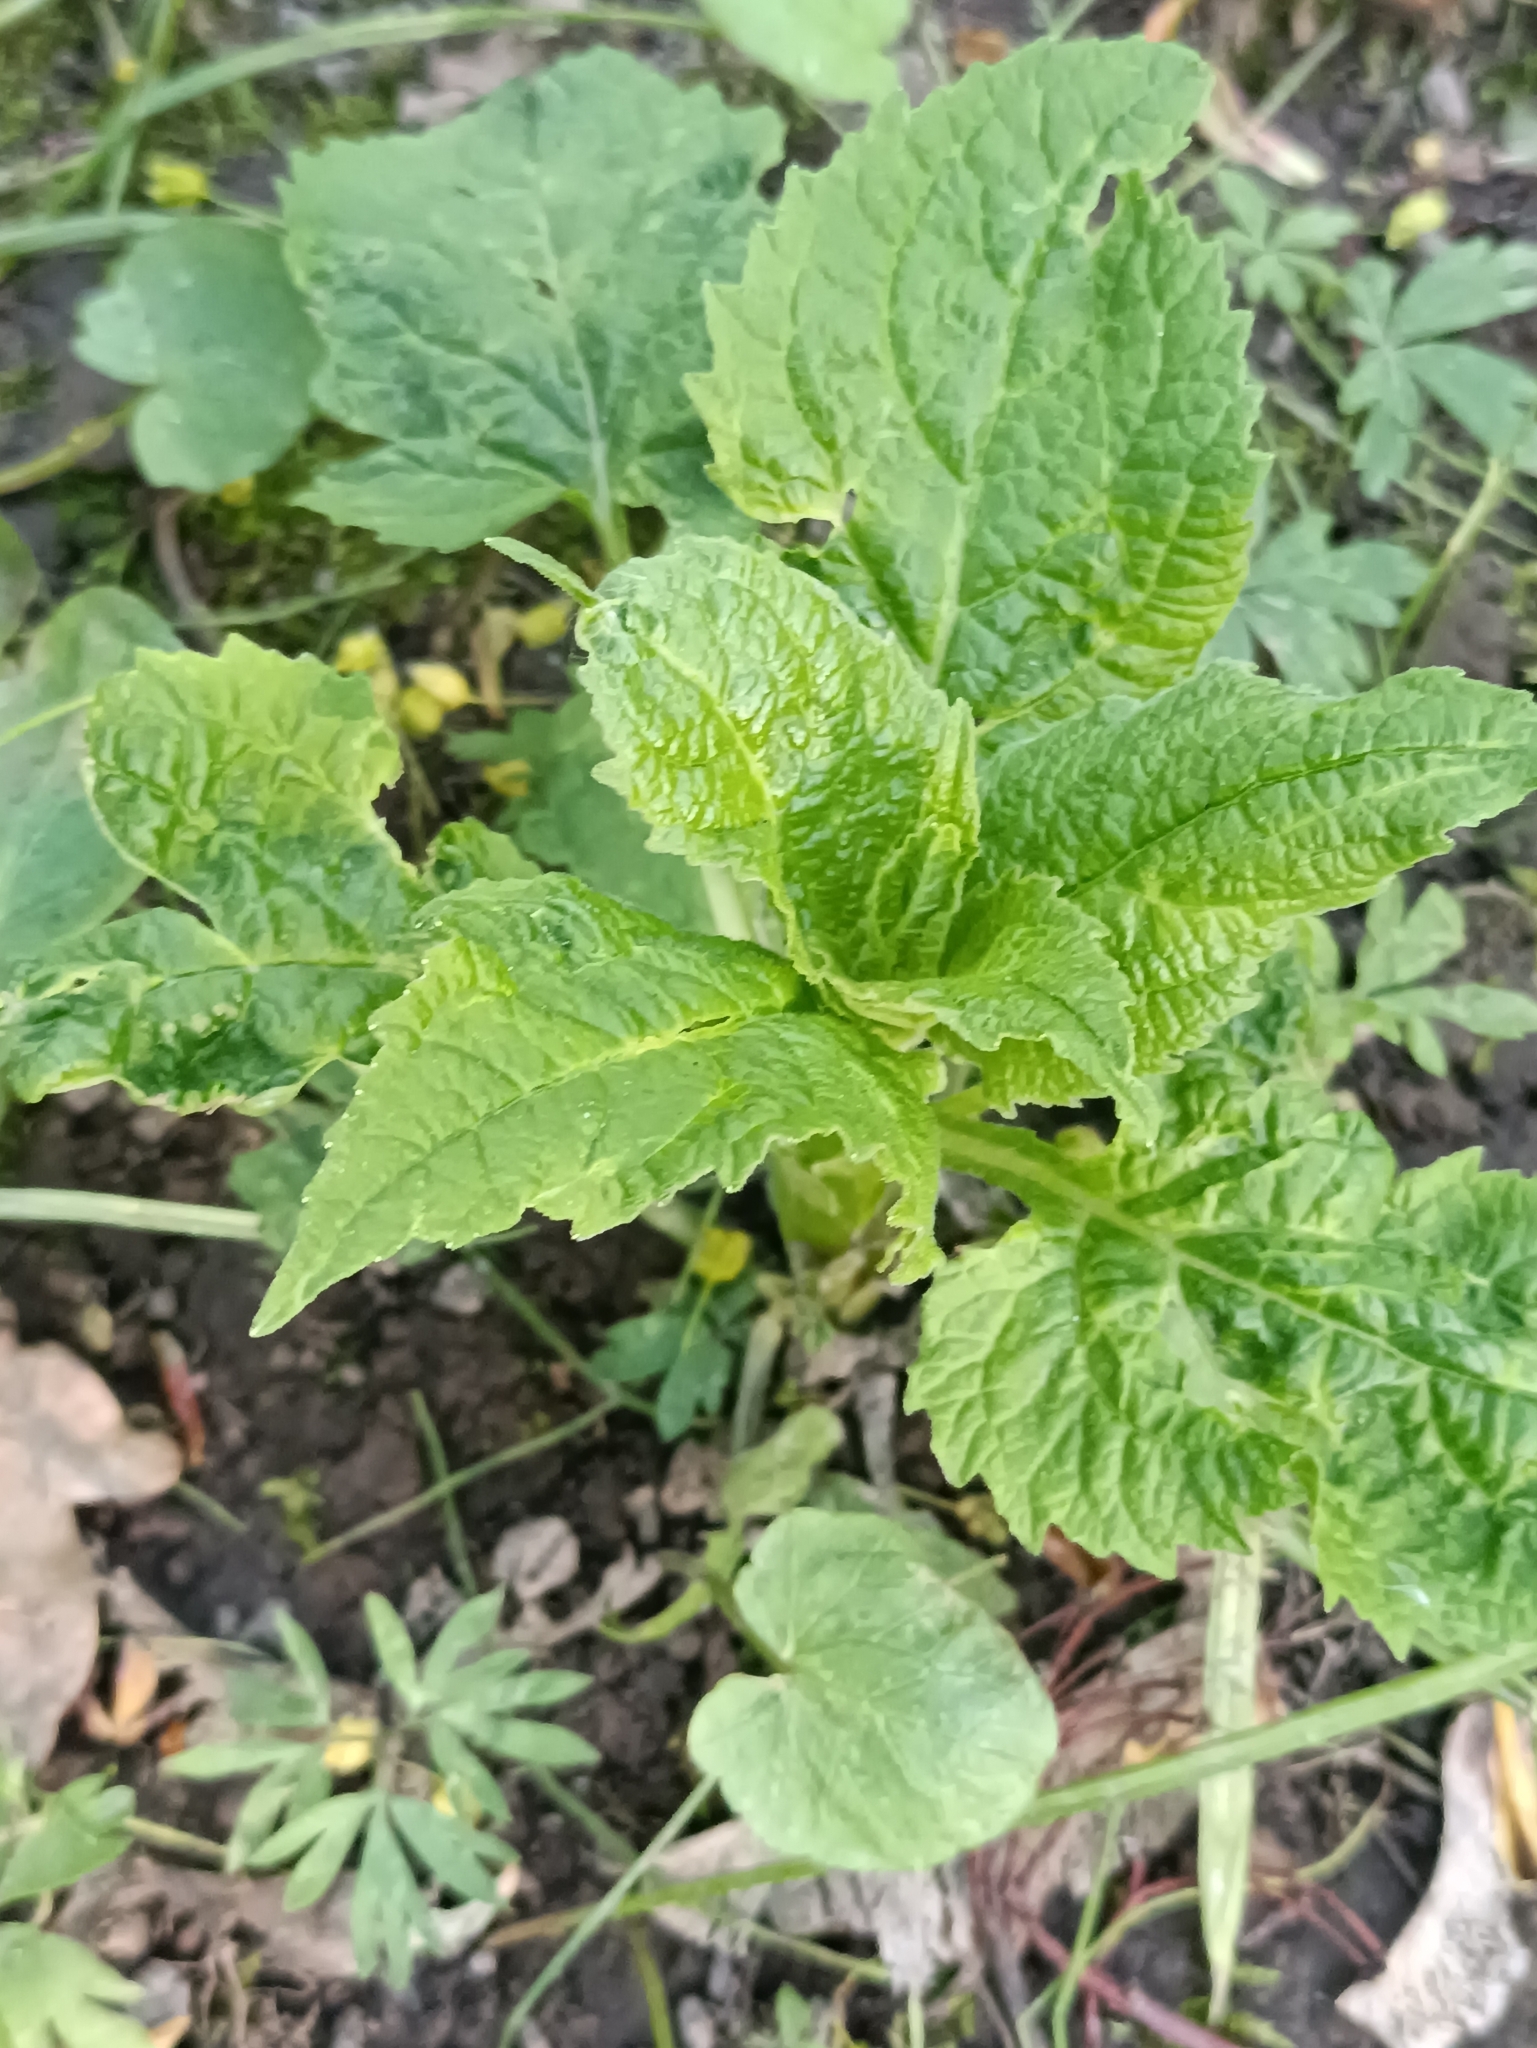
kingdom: Plantae
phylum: Tracheophyta
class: Magnoliopsida
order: Asterales
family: Campanulaceae
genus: Campanula
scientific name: Campanula latifolia
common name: Giant bellflower
